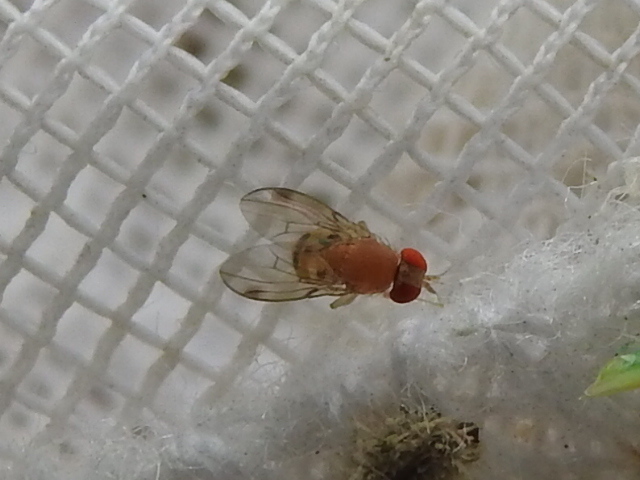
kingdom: Animalia
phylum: Arthropoda
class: Insecta
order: Diptera
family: Drosophilidae
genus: Leucophenga
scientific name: Leucophenga varia
